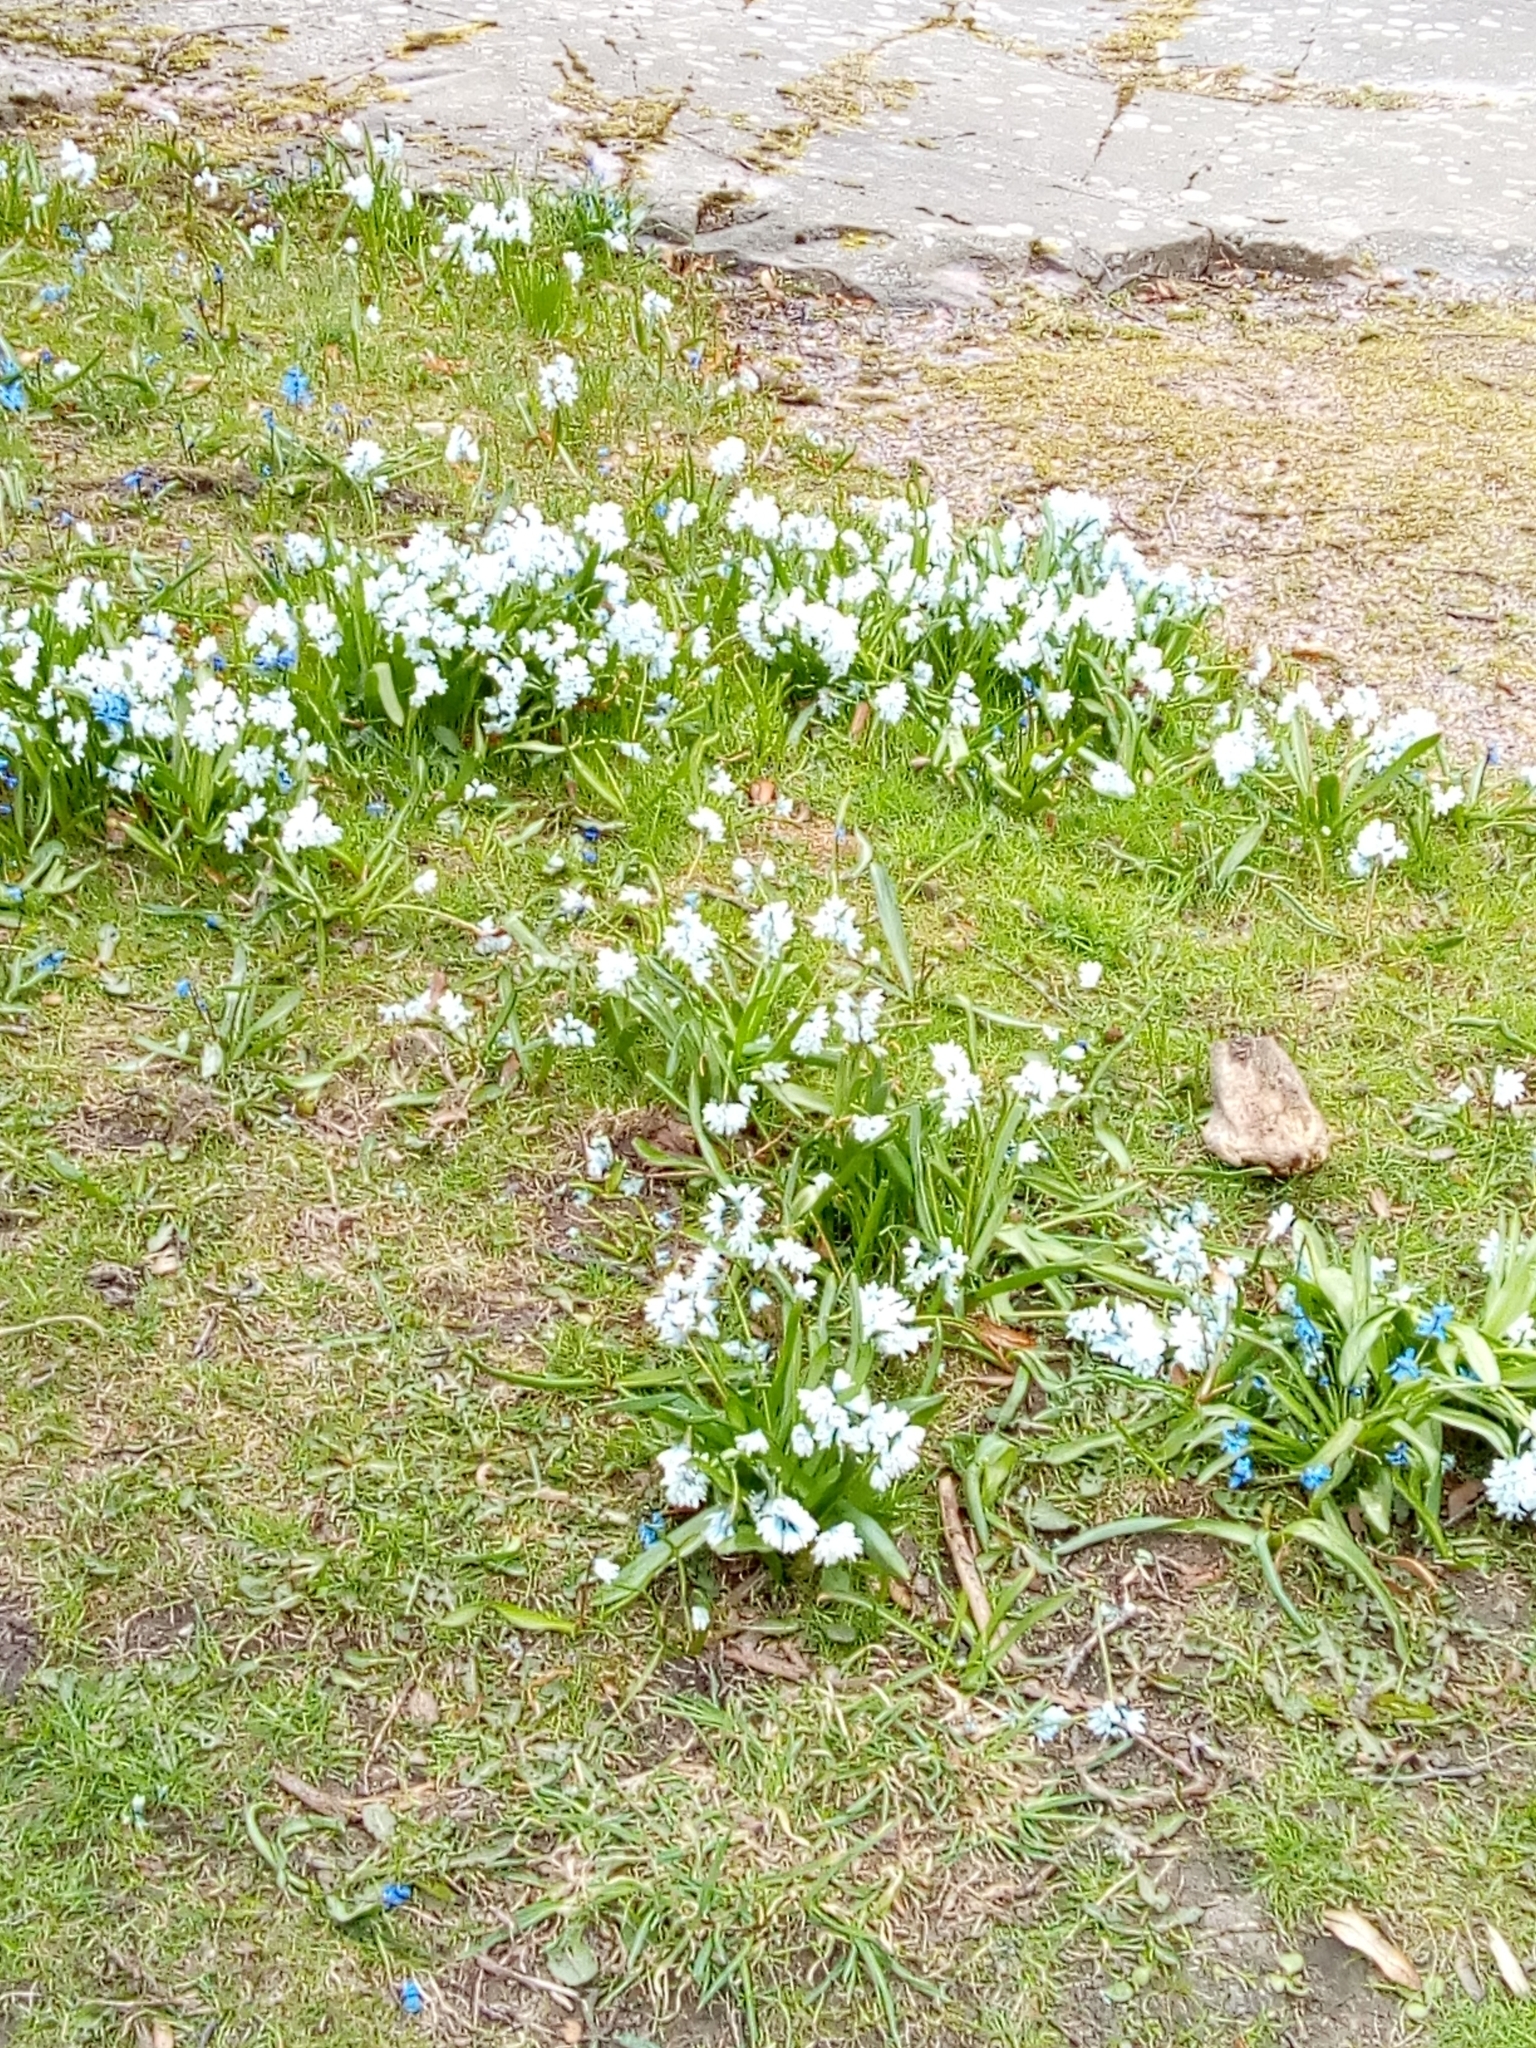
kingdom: Plantae
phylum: Tracheophyta
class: Liliopsida
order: Asparagales
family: Asparagaceae
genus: Puschkinia
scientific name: Puschkinia scilloides
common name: Striped squill
